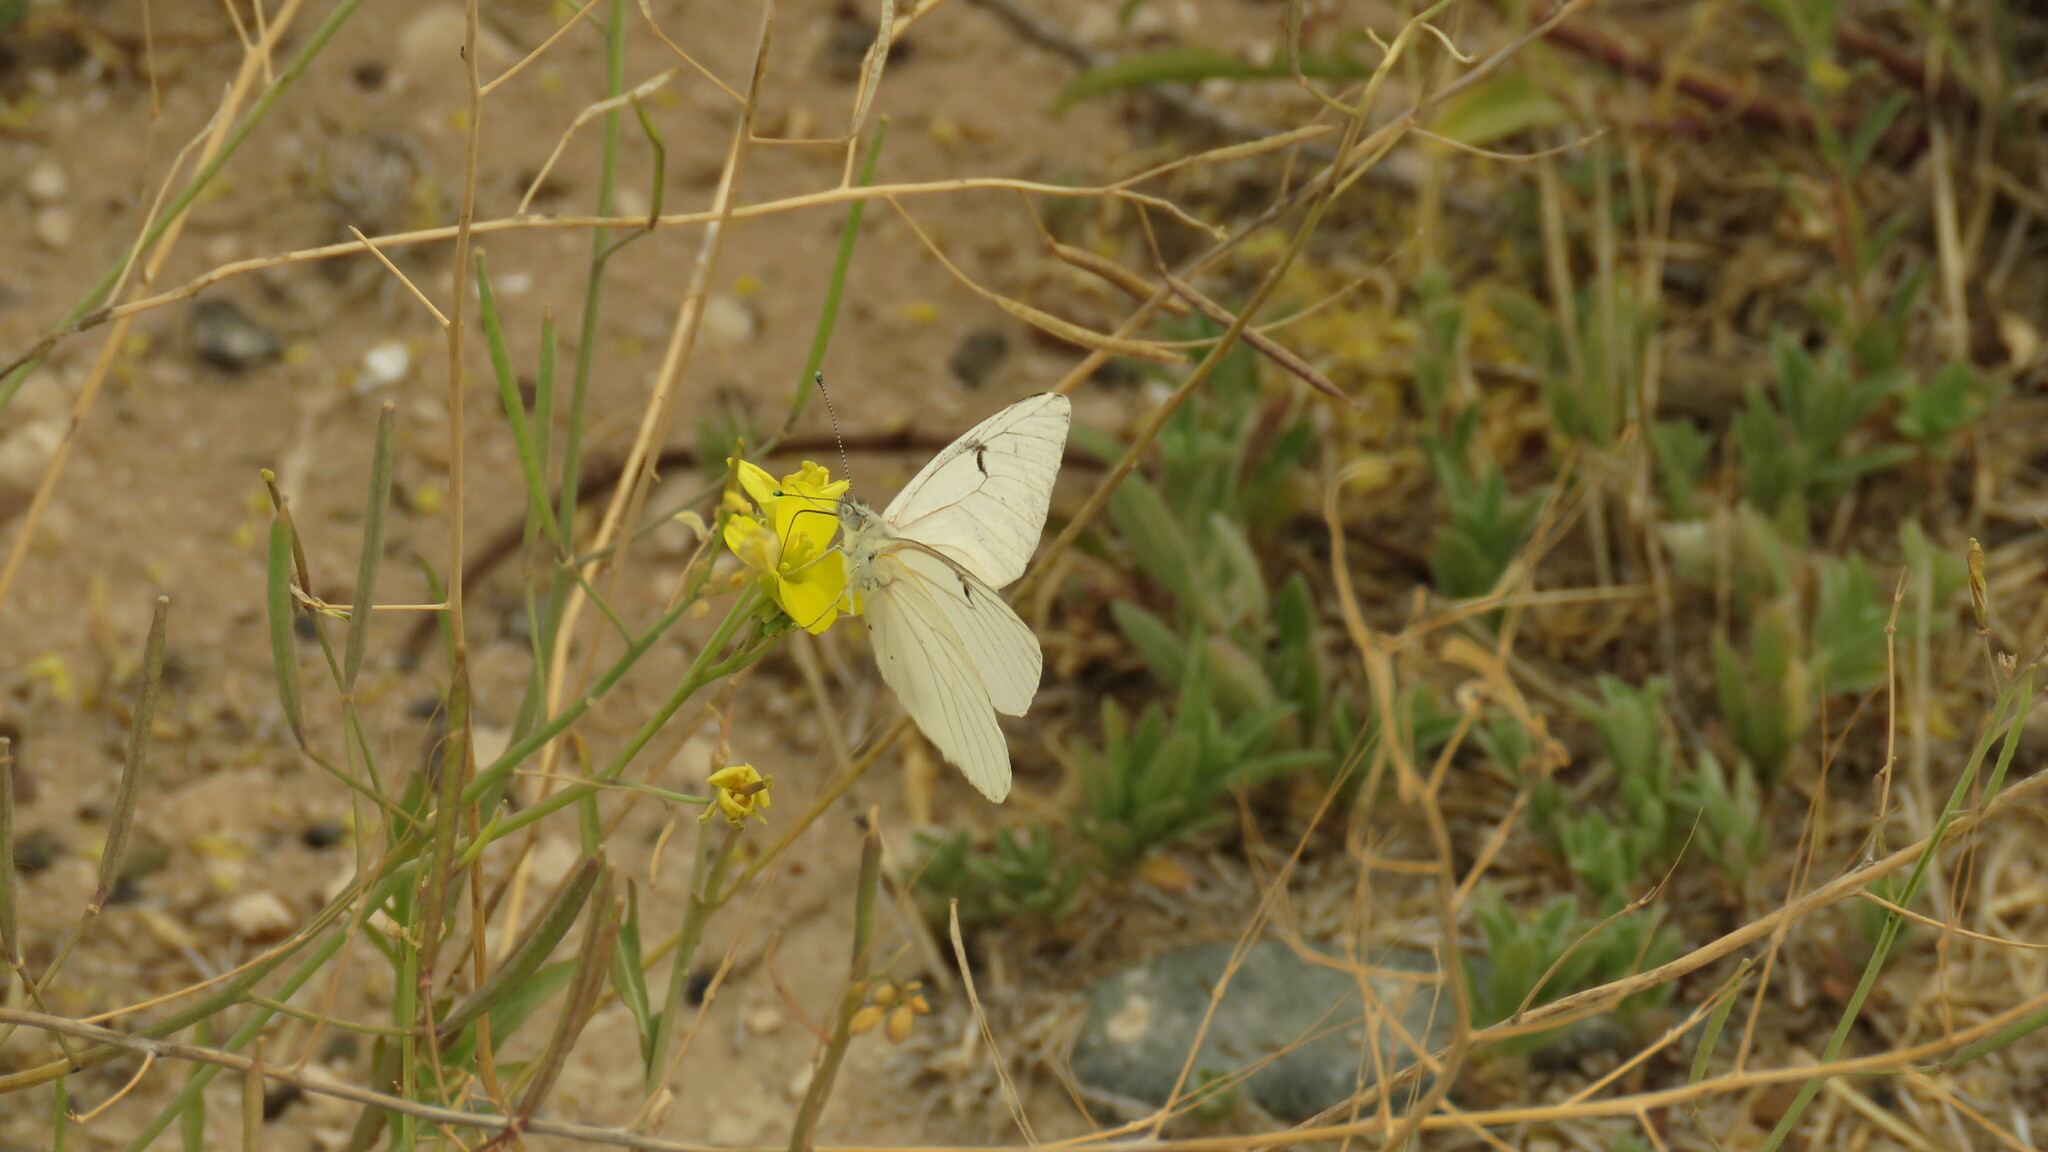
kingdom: Animalia
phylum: Arthropoda
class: Insecta
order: Lepidoptera
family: Pieridae
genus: Tatochila
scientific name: Tatochila mercedis
